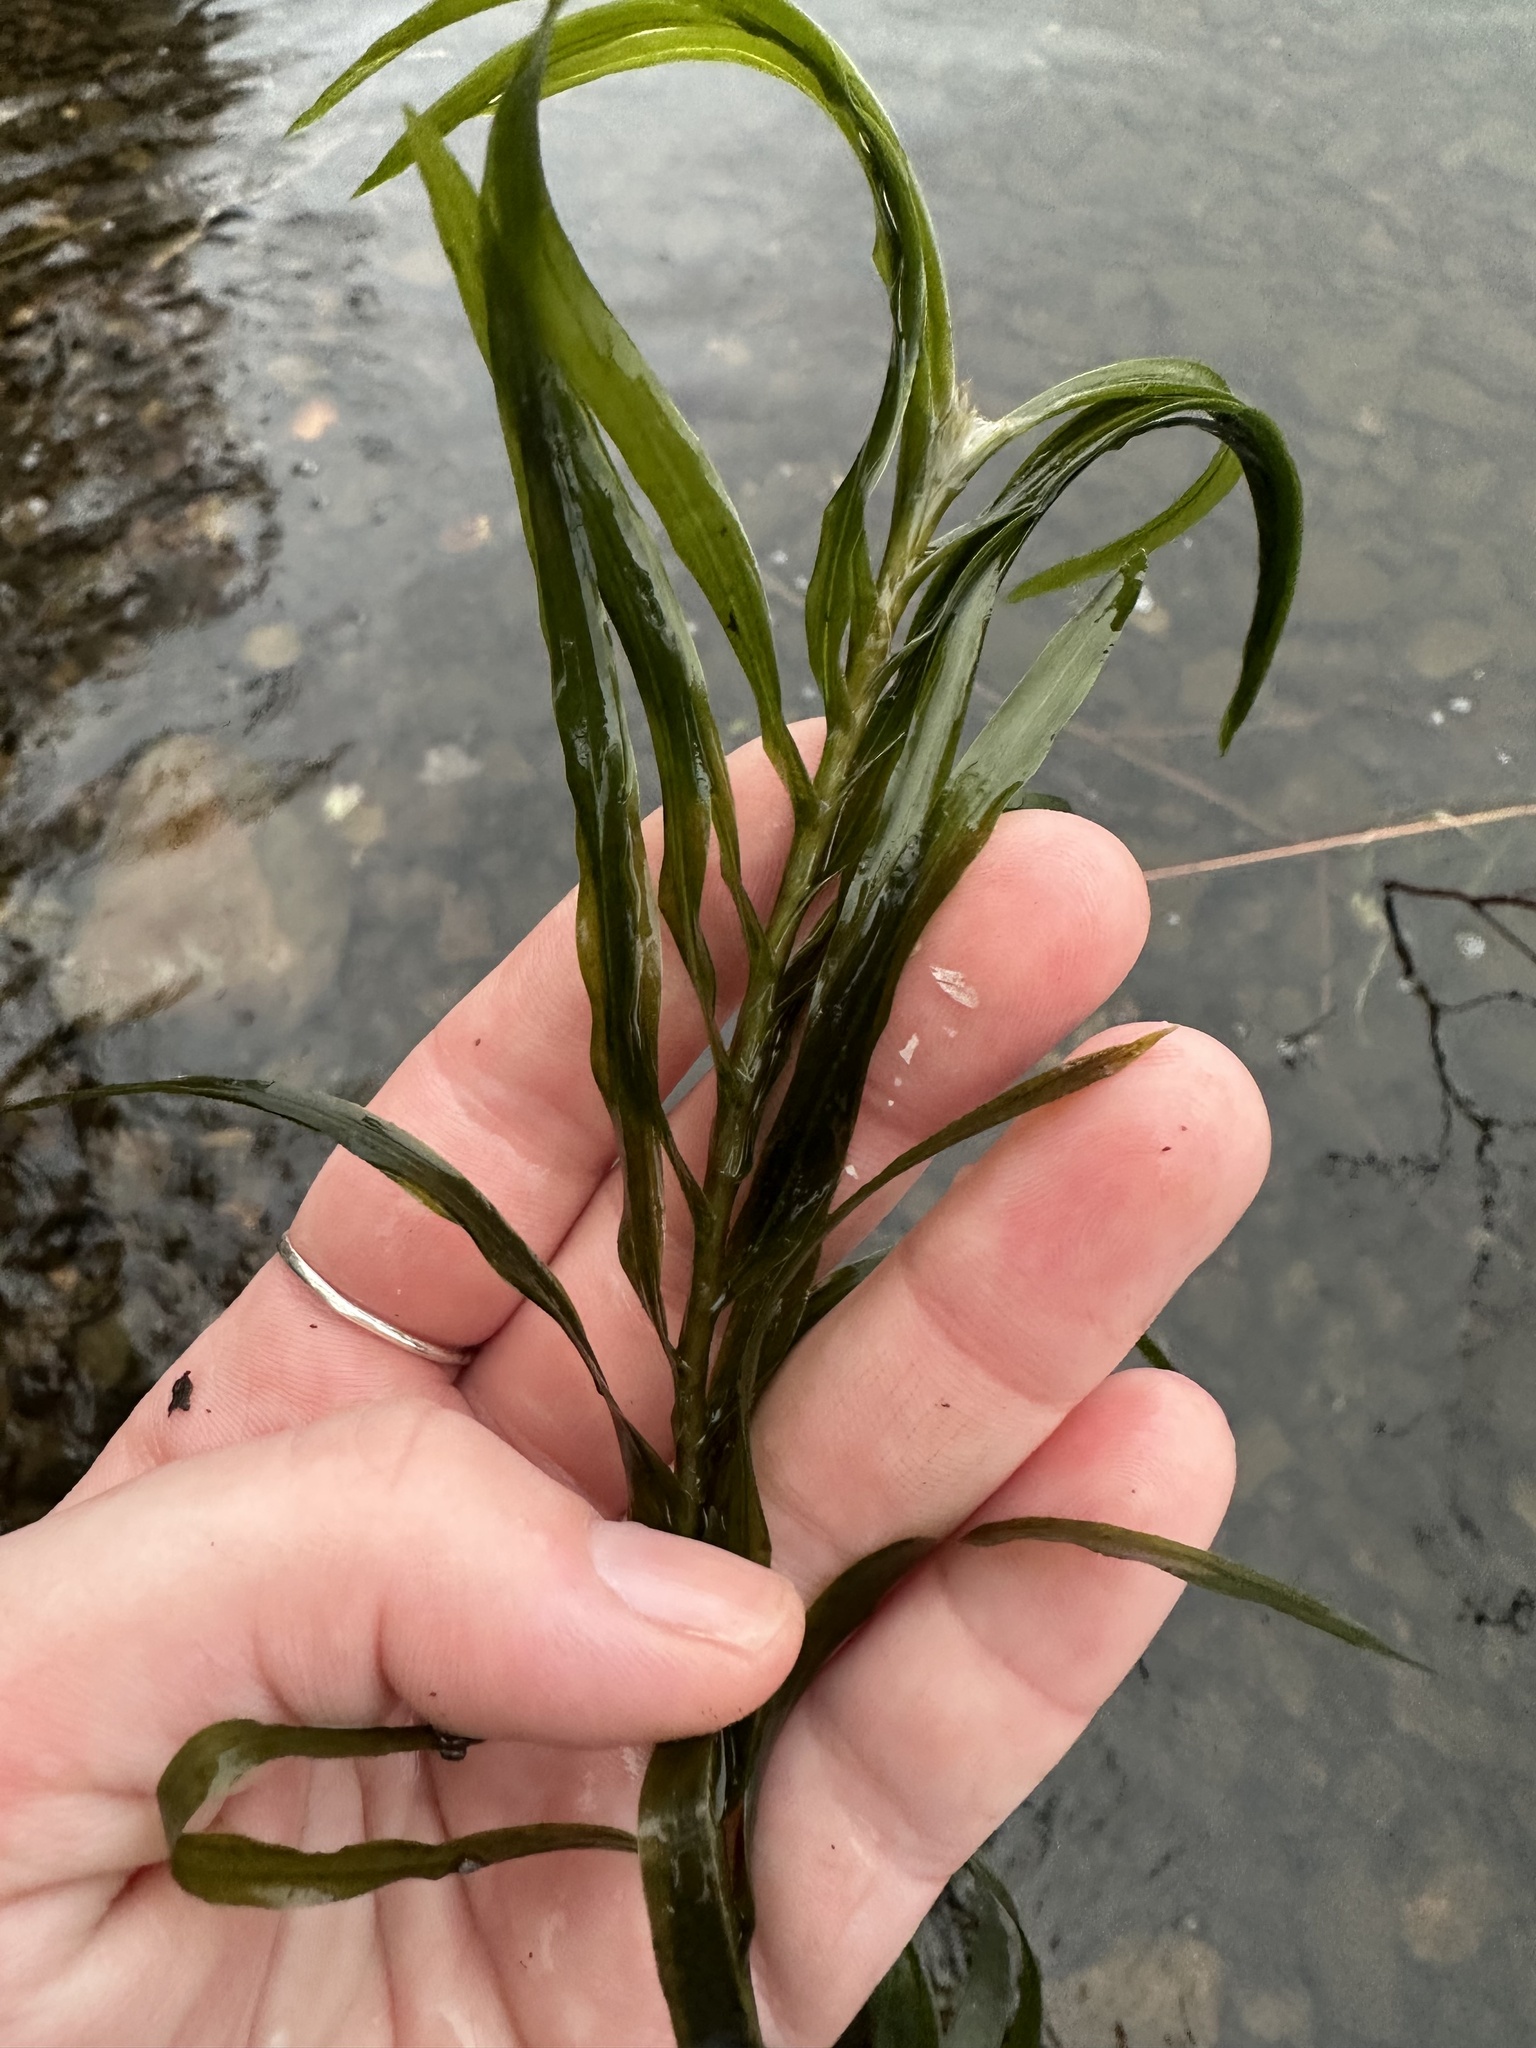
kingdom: Plantae
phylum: Tracheophyta
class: Liliopsida
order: Alismatales
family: Potamogetonaceae
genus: Potamogeton
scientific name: Potamogeton robbinsii
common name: Fern pondweed
